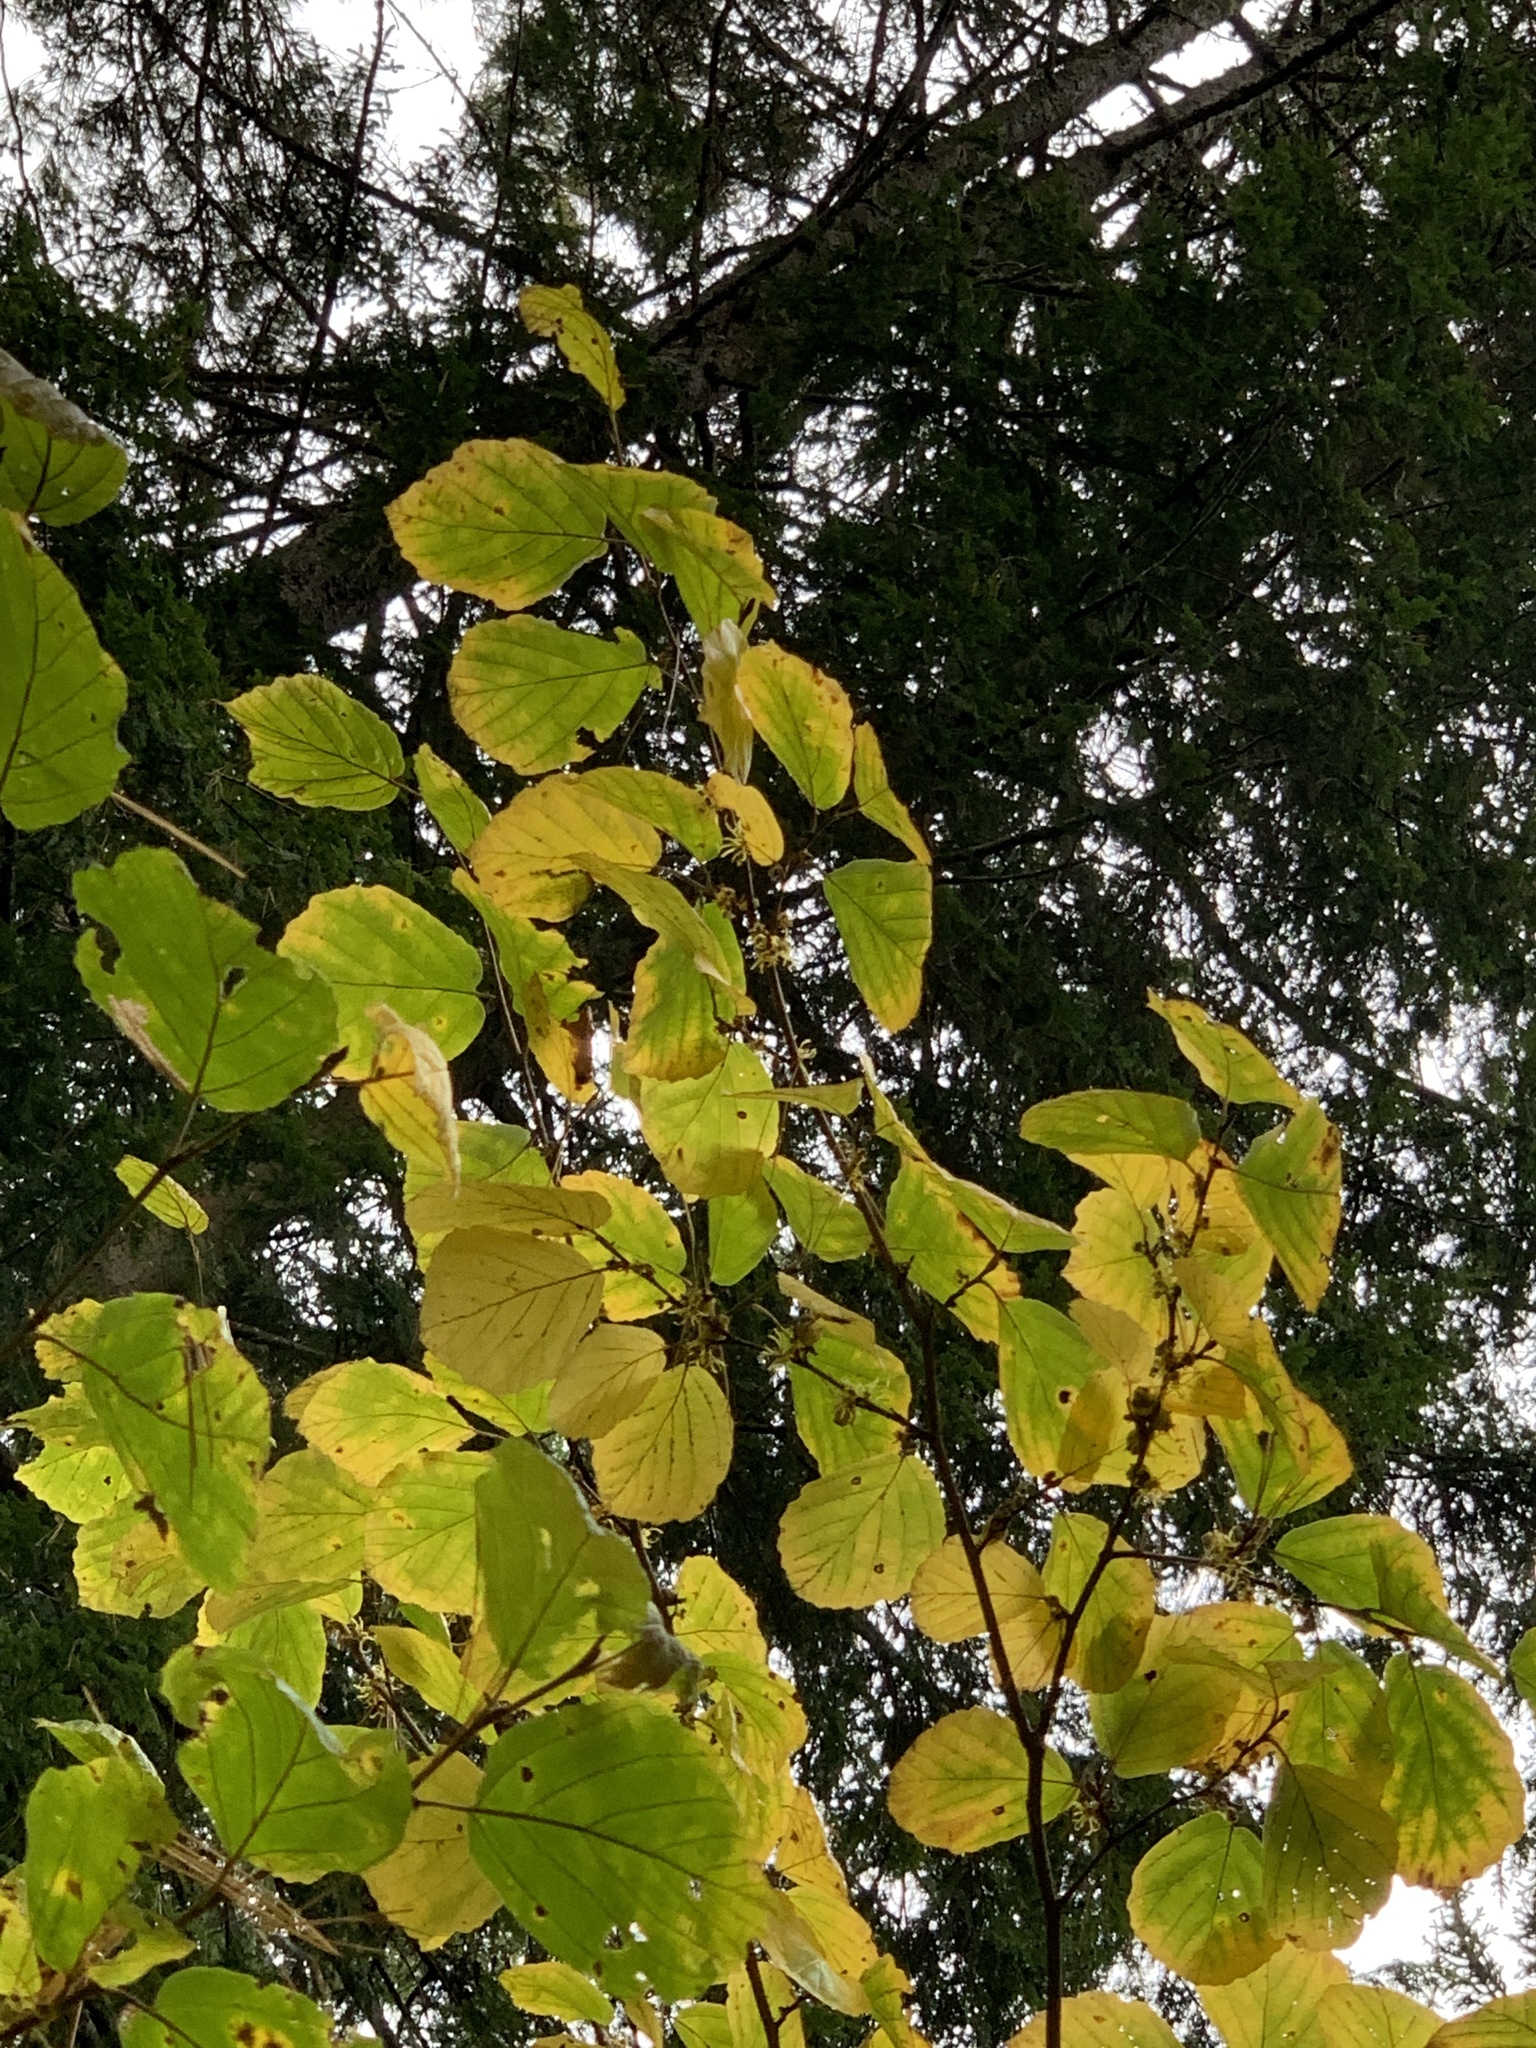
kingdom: Plantae
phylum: Tracheophyta
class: Magnoliopsida
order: Saxifragales
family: Hamamelidaceae
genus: Hamamelis
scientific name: Hamamelis virginiana
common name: Witch-hazel
